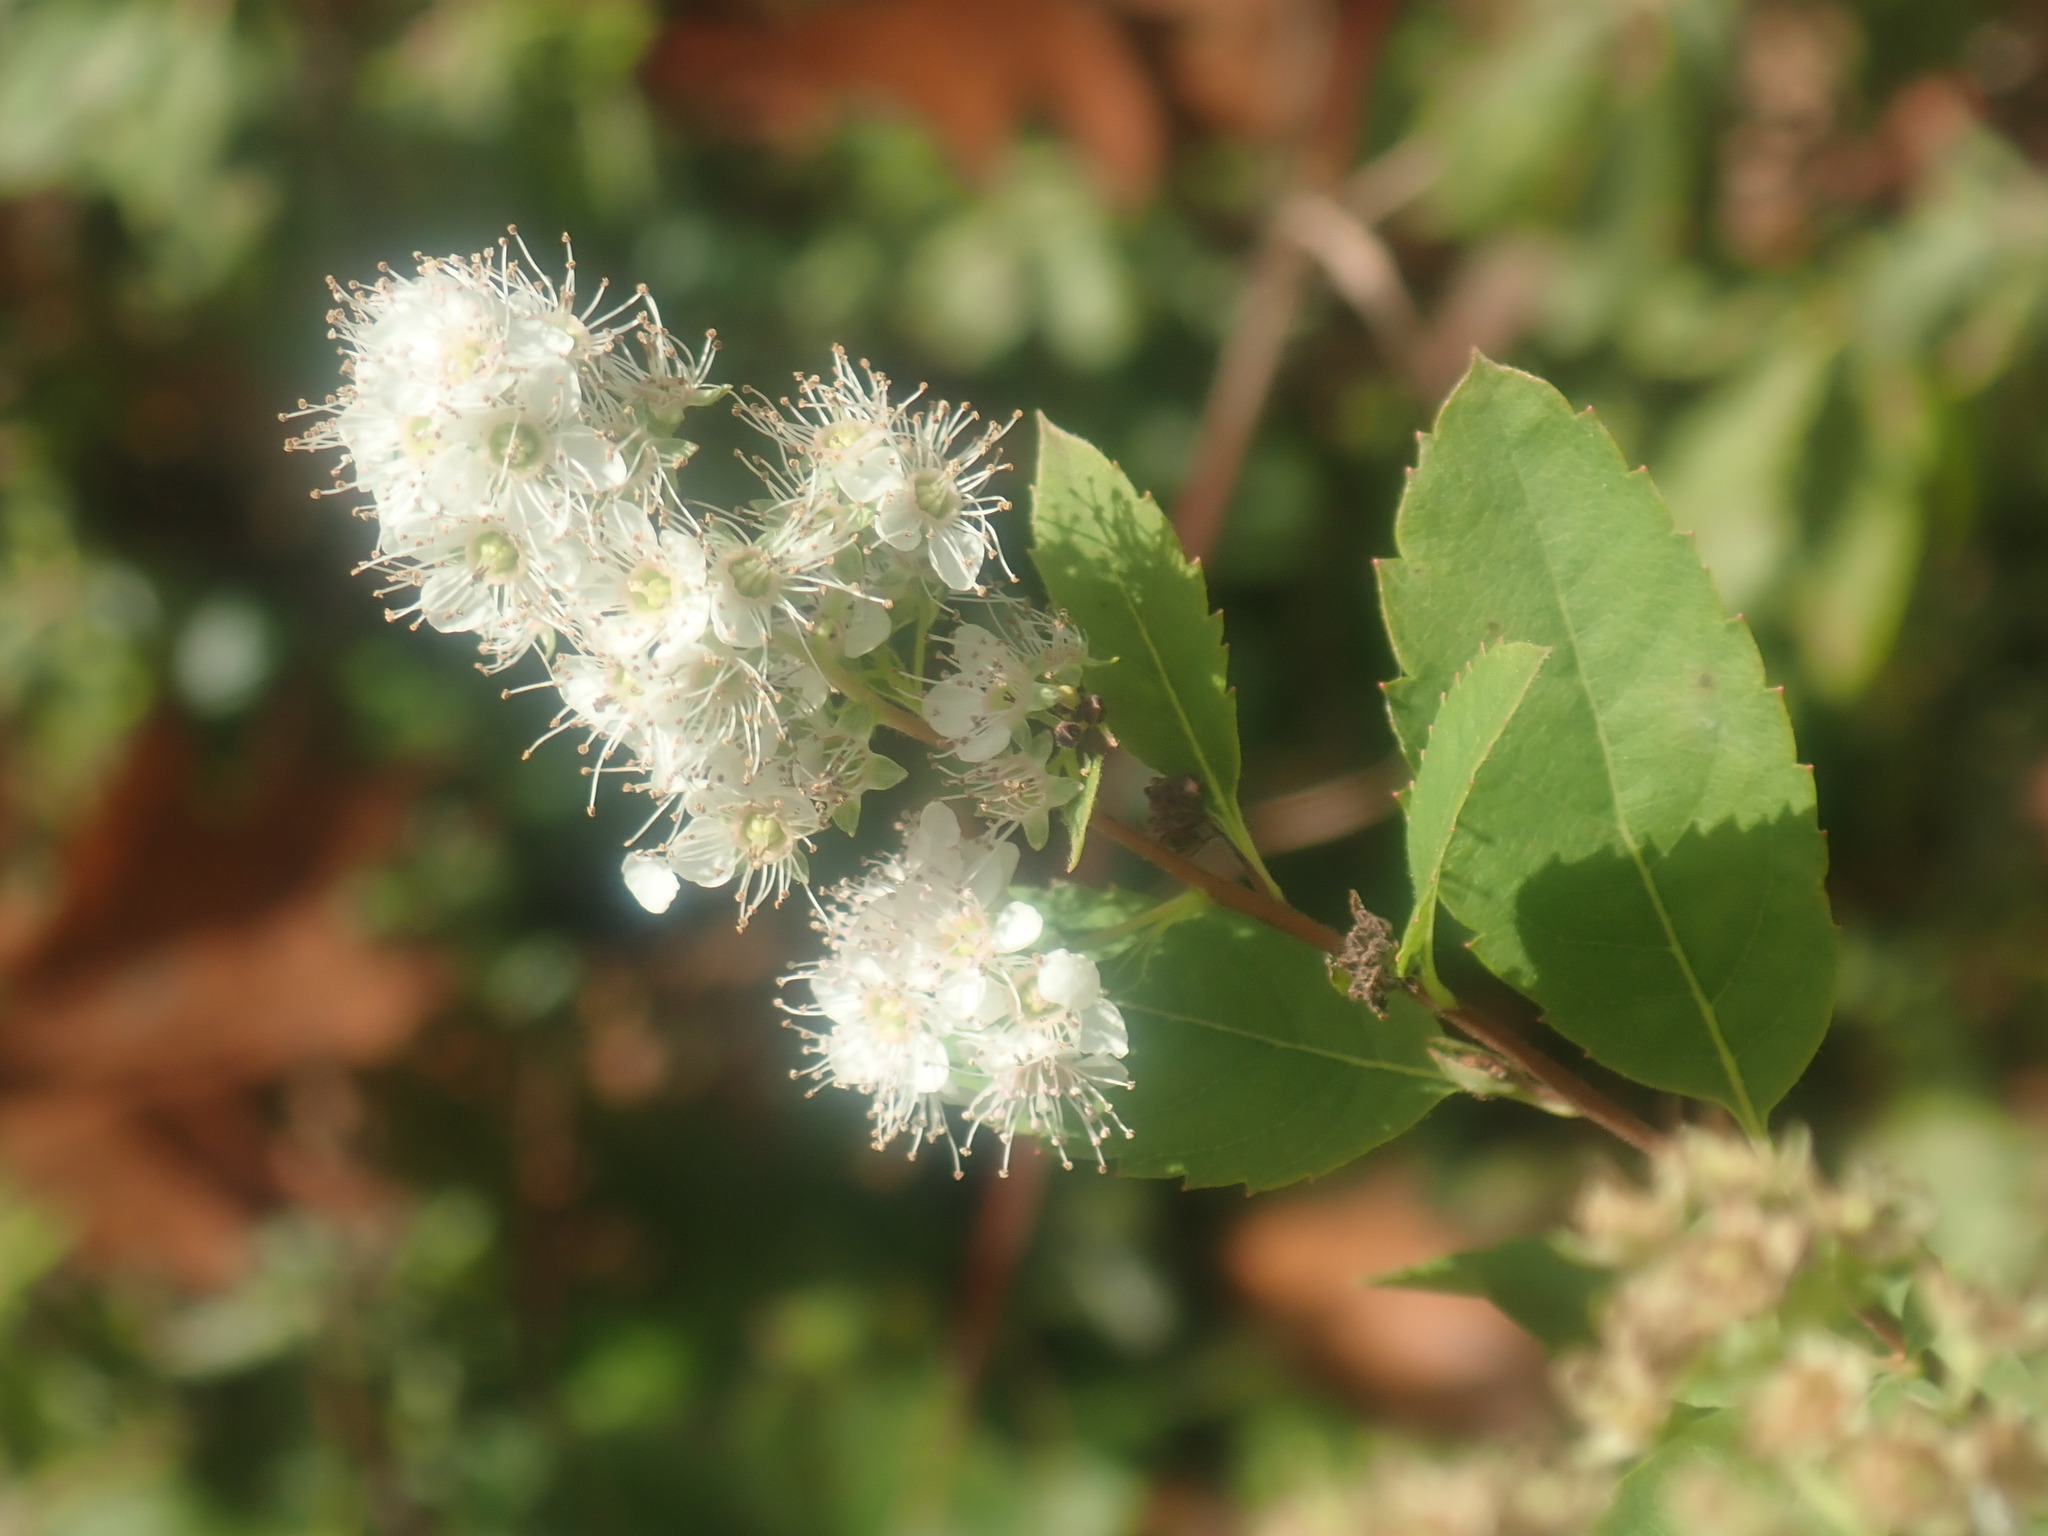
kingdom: Plantae
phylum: Tracheophyta
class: Magnoliopsida
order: Rosales
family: Rosaceae
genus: Spiraea
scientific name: Spiraea alba
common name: Pale bridewort
